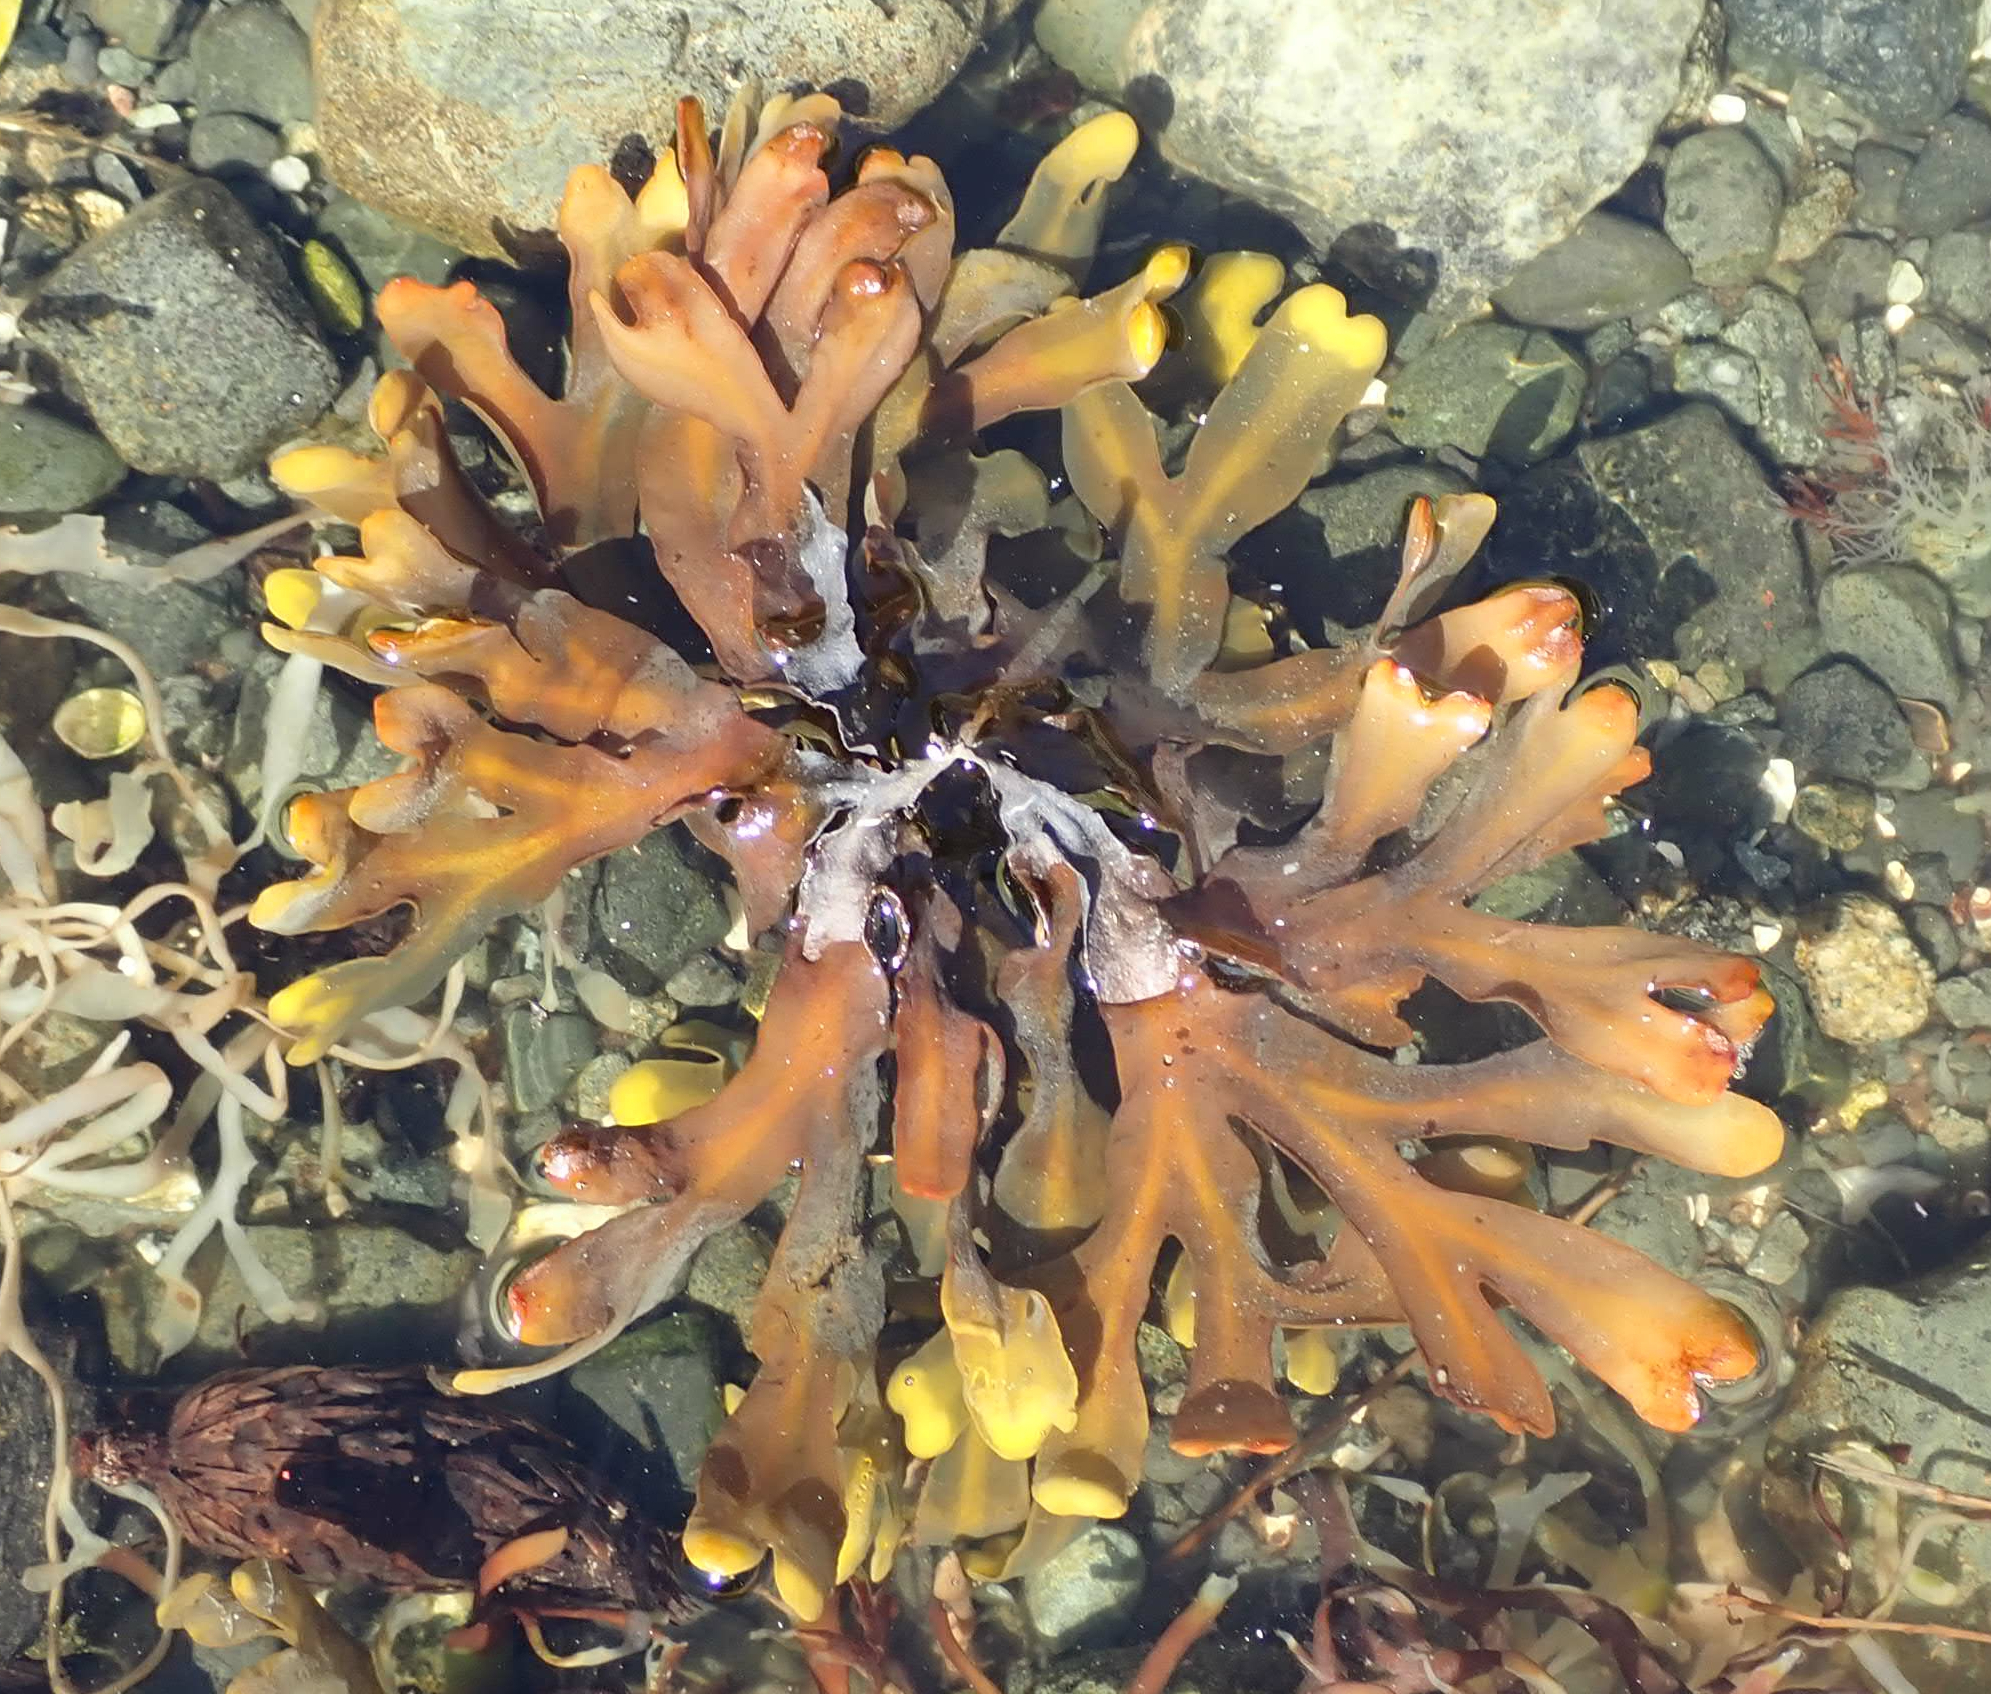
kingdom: Chromista
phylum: Ochrophyta
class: Phaeophyceae
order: Fucales
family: Fucaceae
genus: Fucus
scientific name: Fucus distichus
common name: Rockweed
